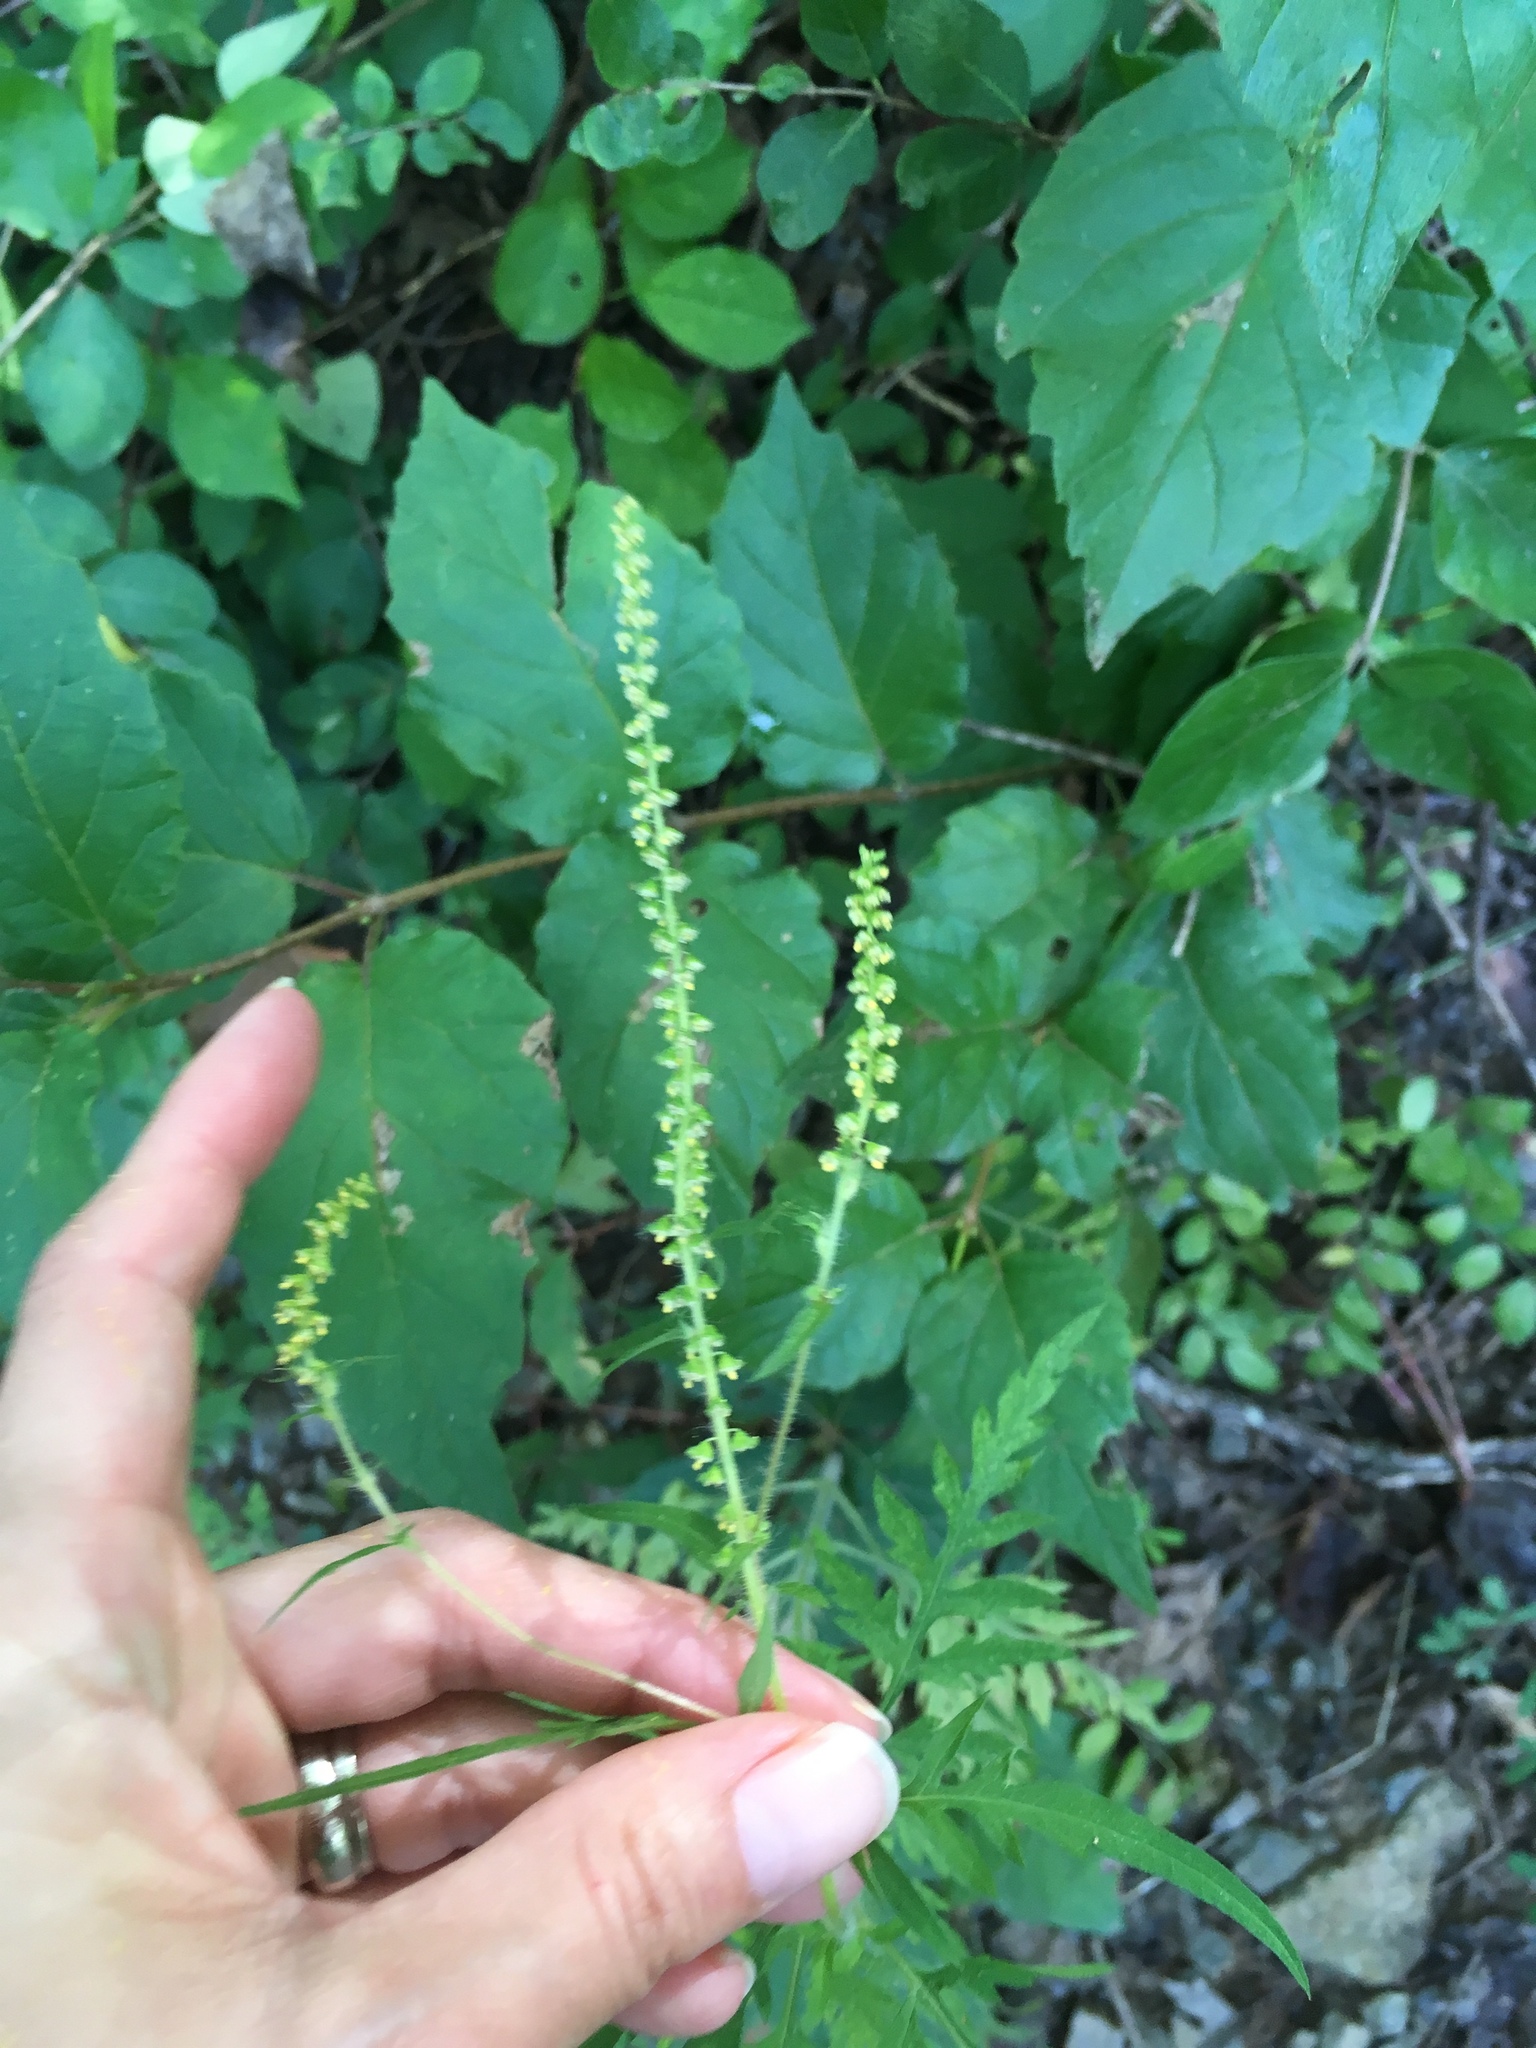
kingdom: Plantae
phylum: Tracheophyta
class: Magnoliopsida
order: Asterales
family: Asteraceae
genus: Ambrosia
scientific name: Ambrosia artemisiifolia
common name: Annual ragweed
